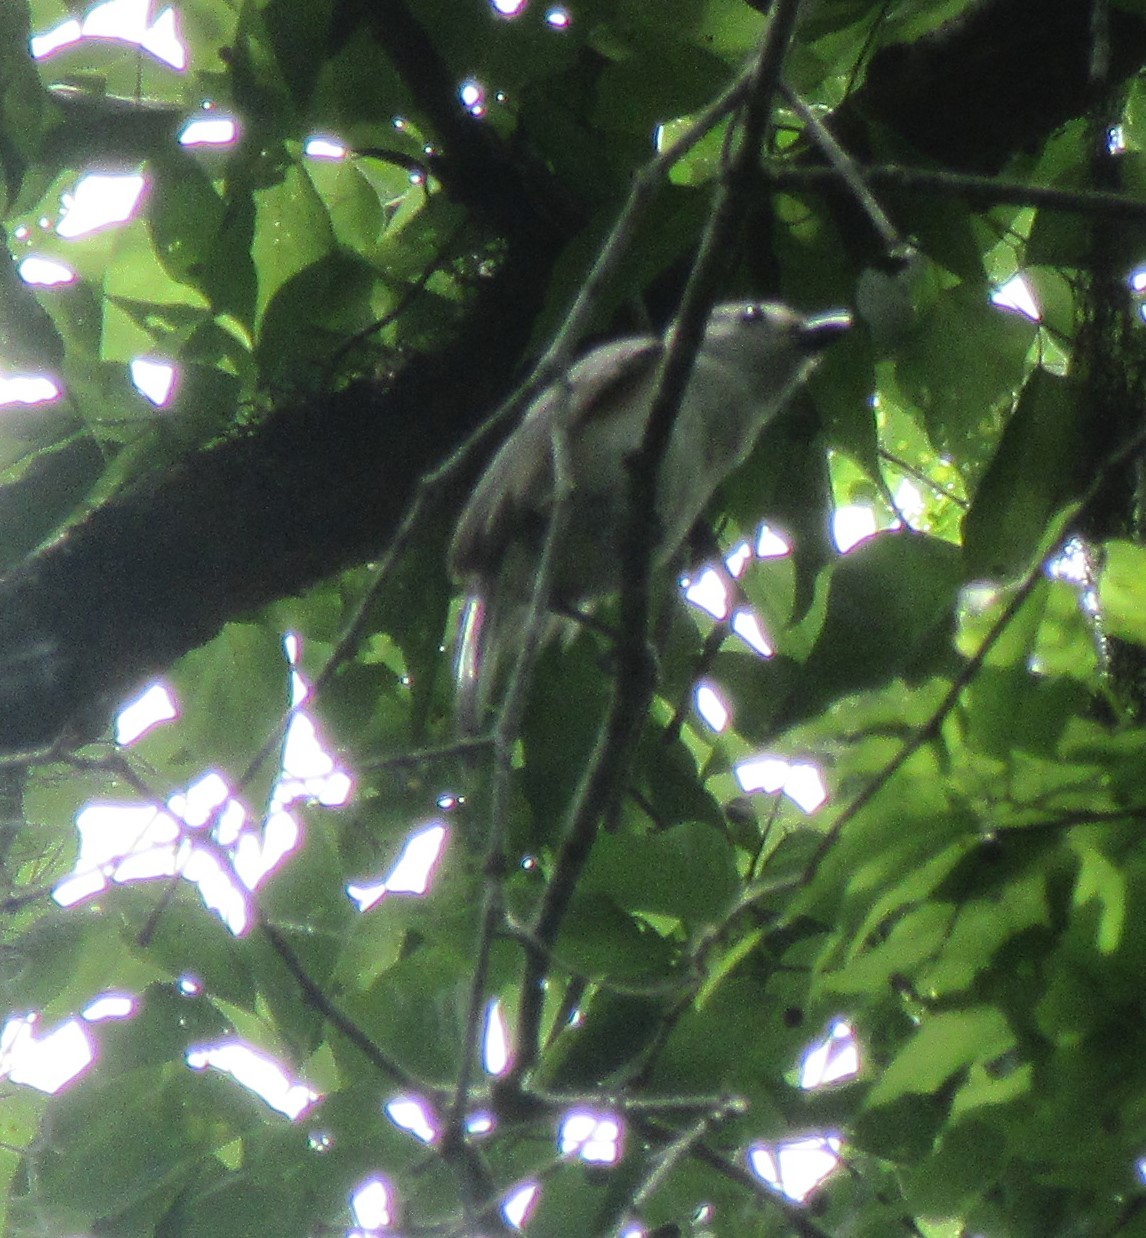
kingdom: Animalia
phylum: Chordata
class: Aves
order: Passeriformes
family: Paridae
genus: Baeolophus
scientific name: Baeolophus bicolor
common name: Tufted titmouse
